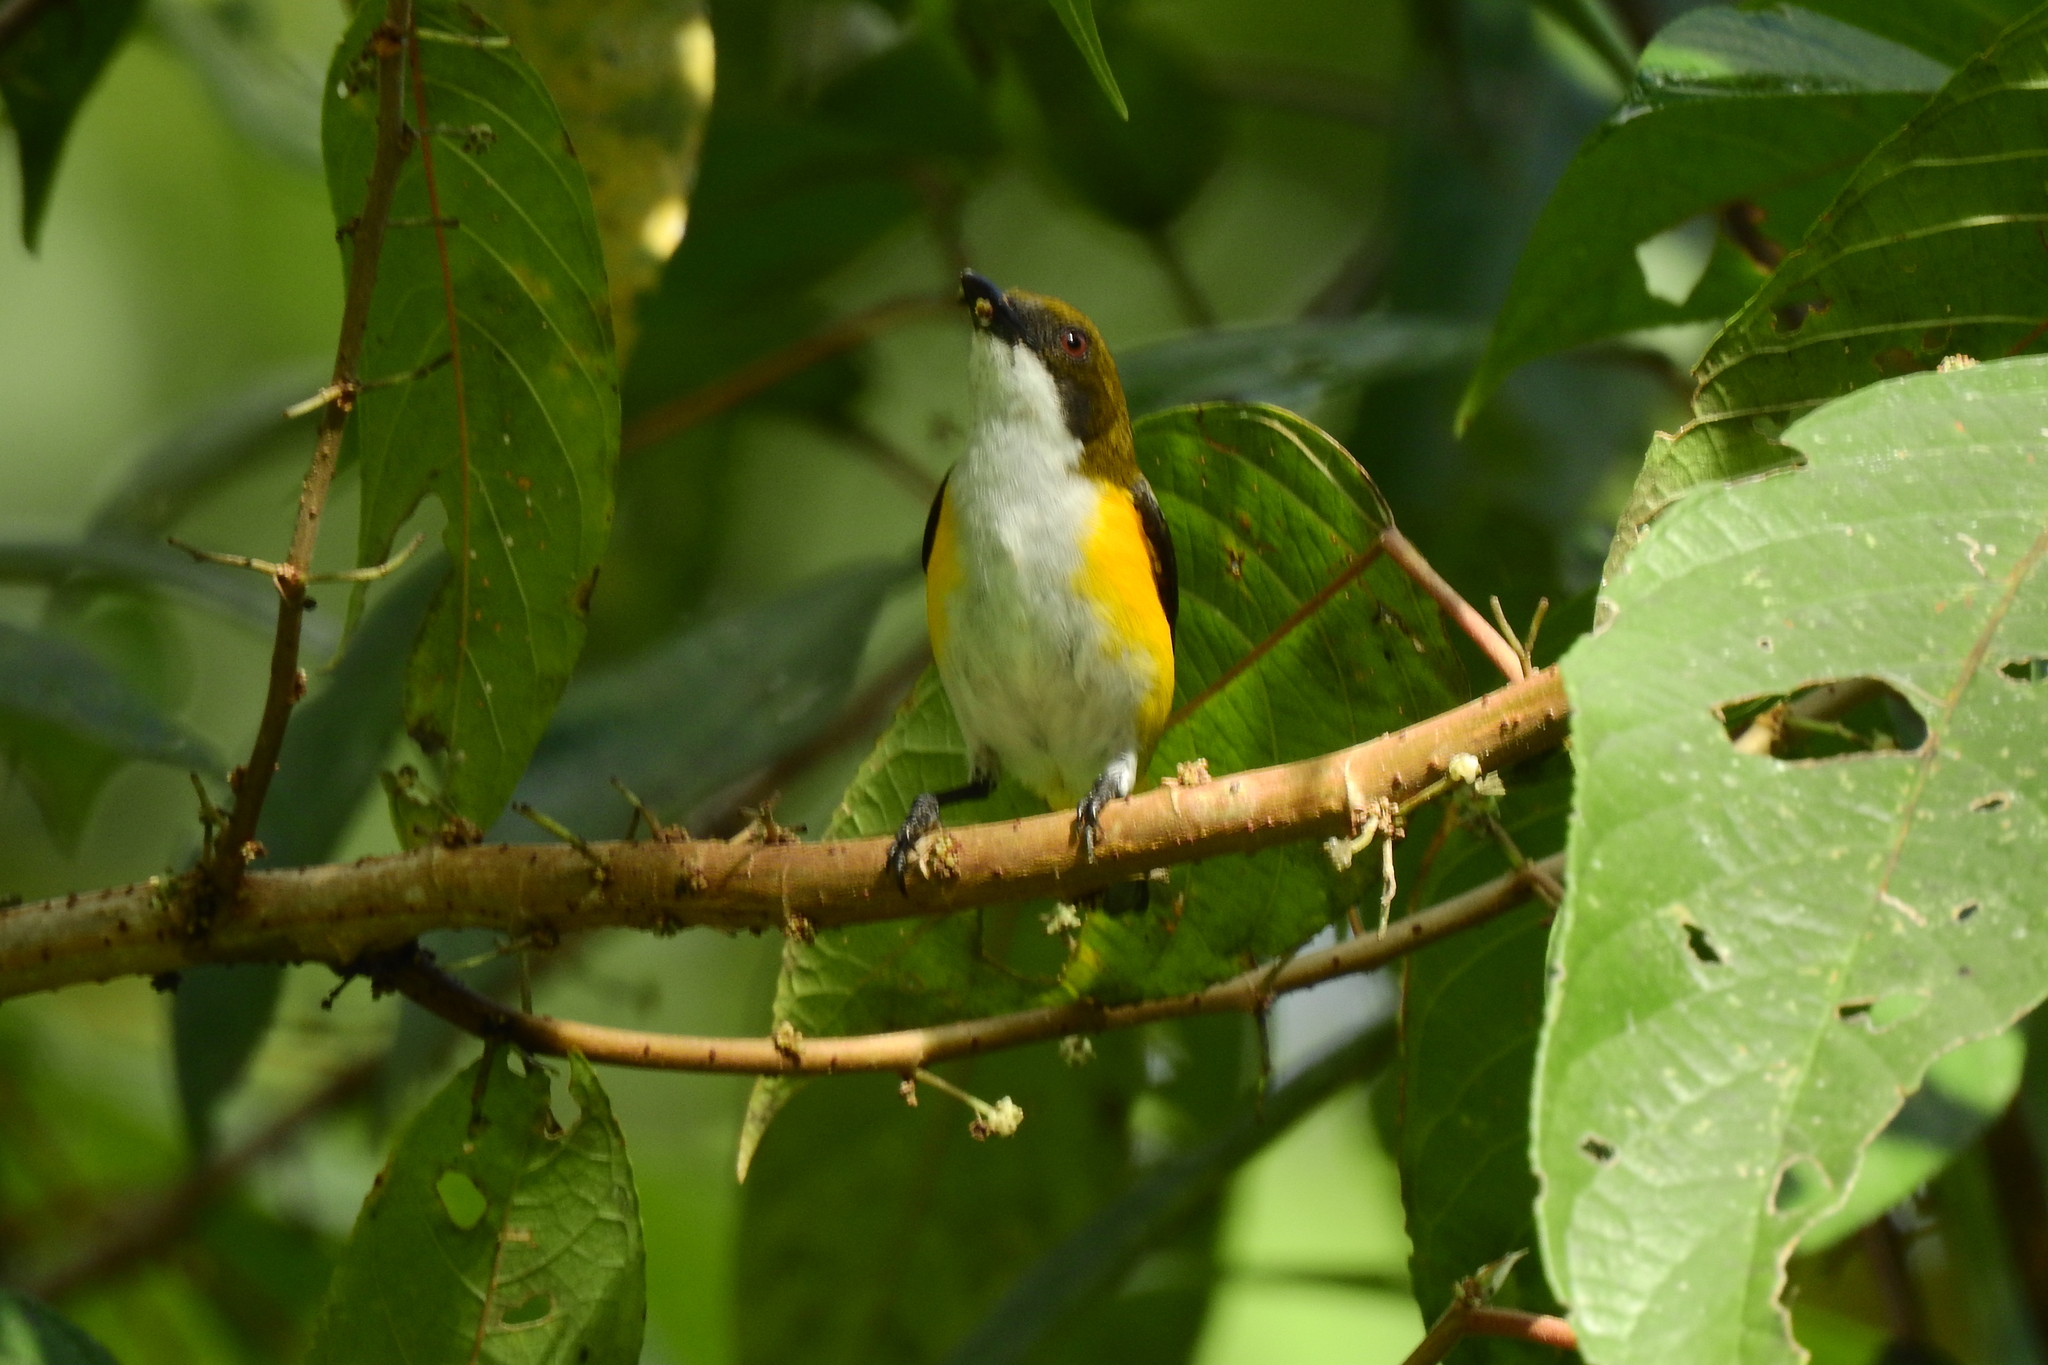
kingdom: Animalia
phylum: Chordata
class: Aves
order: Passeriformes
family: Dicaeidae
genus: Dicaeum
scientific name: Dicaeum aureolimbatum
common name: Yellow-sided flowerpecker
